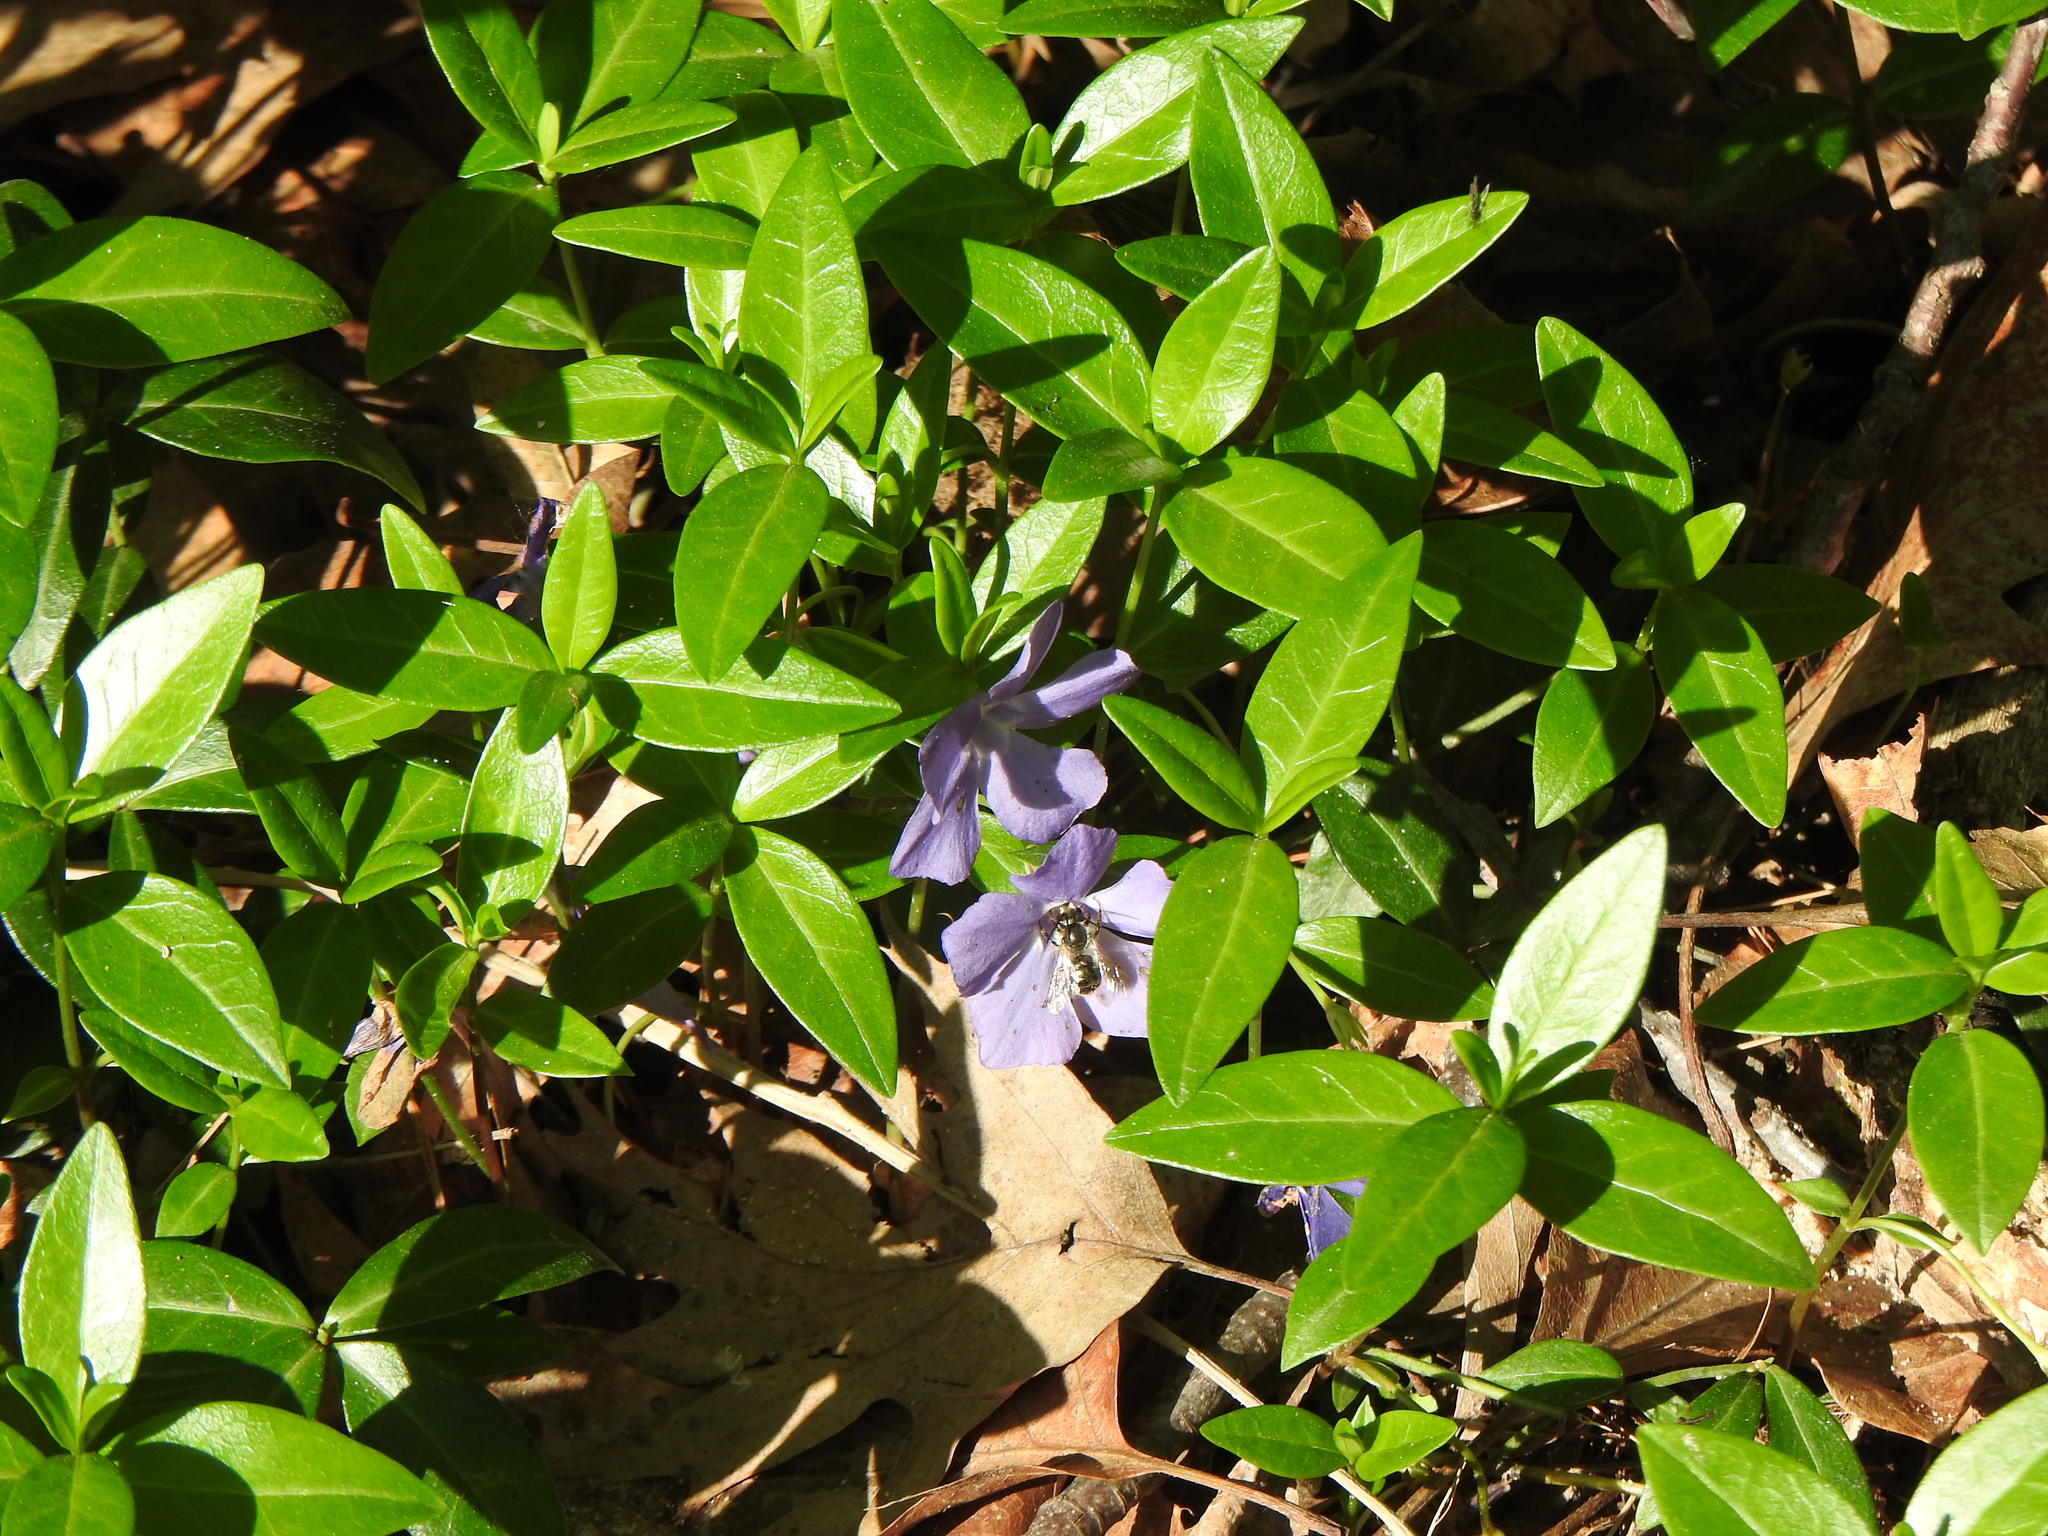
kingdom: Plantae
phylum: Tracheophyta
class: Magnoliopsida
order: Gentianales
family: Apocynaceae
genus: Vinca
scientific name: Vinca minor
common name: Lesser periwinkle
